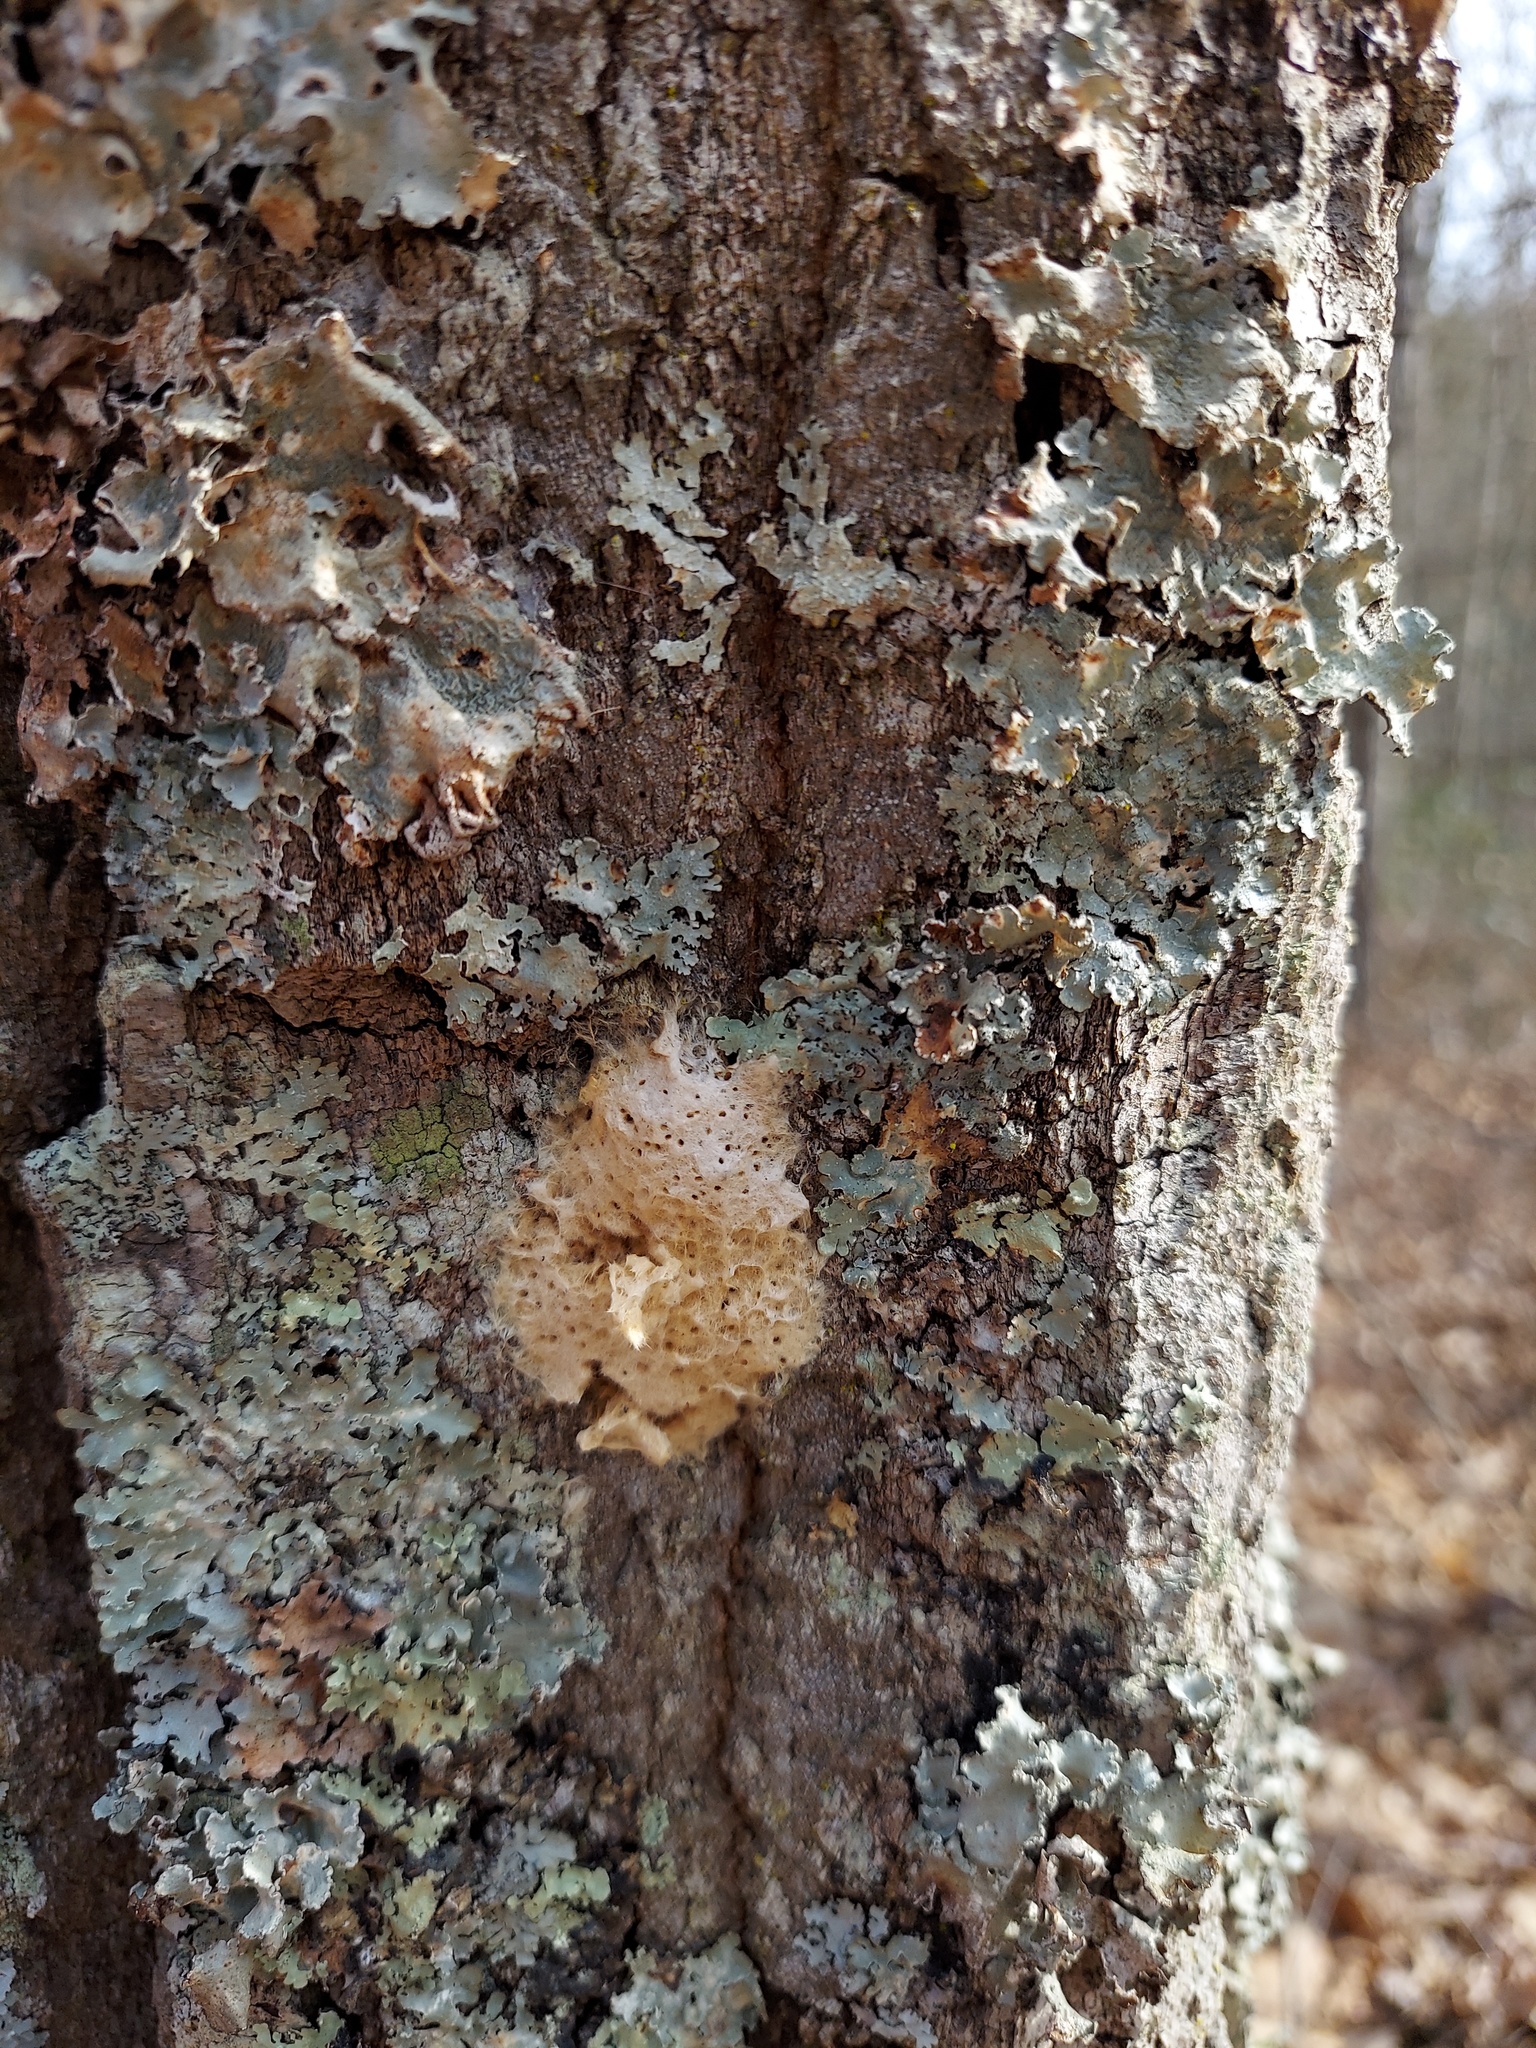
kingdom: Animalia
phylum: Arthropoda
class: Insecta
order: Lepidoptera
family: Erebidae
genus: Lymantria
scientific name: Lymantria dispar
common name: Gypsy moth
